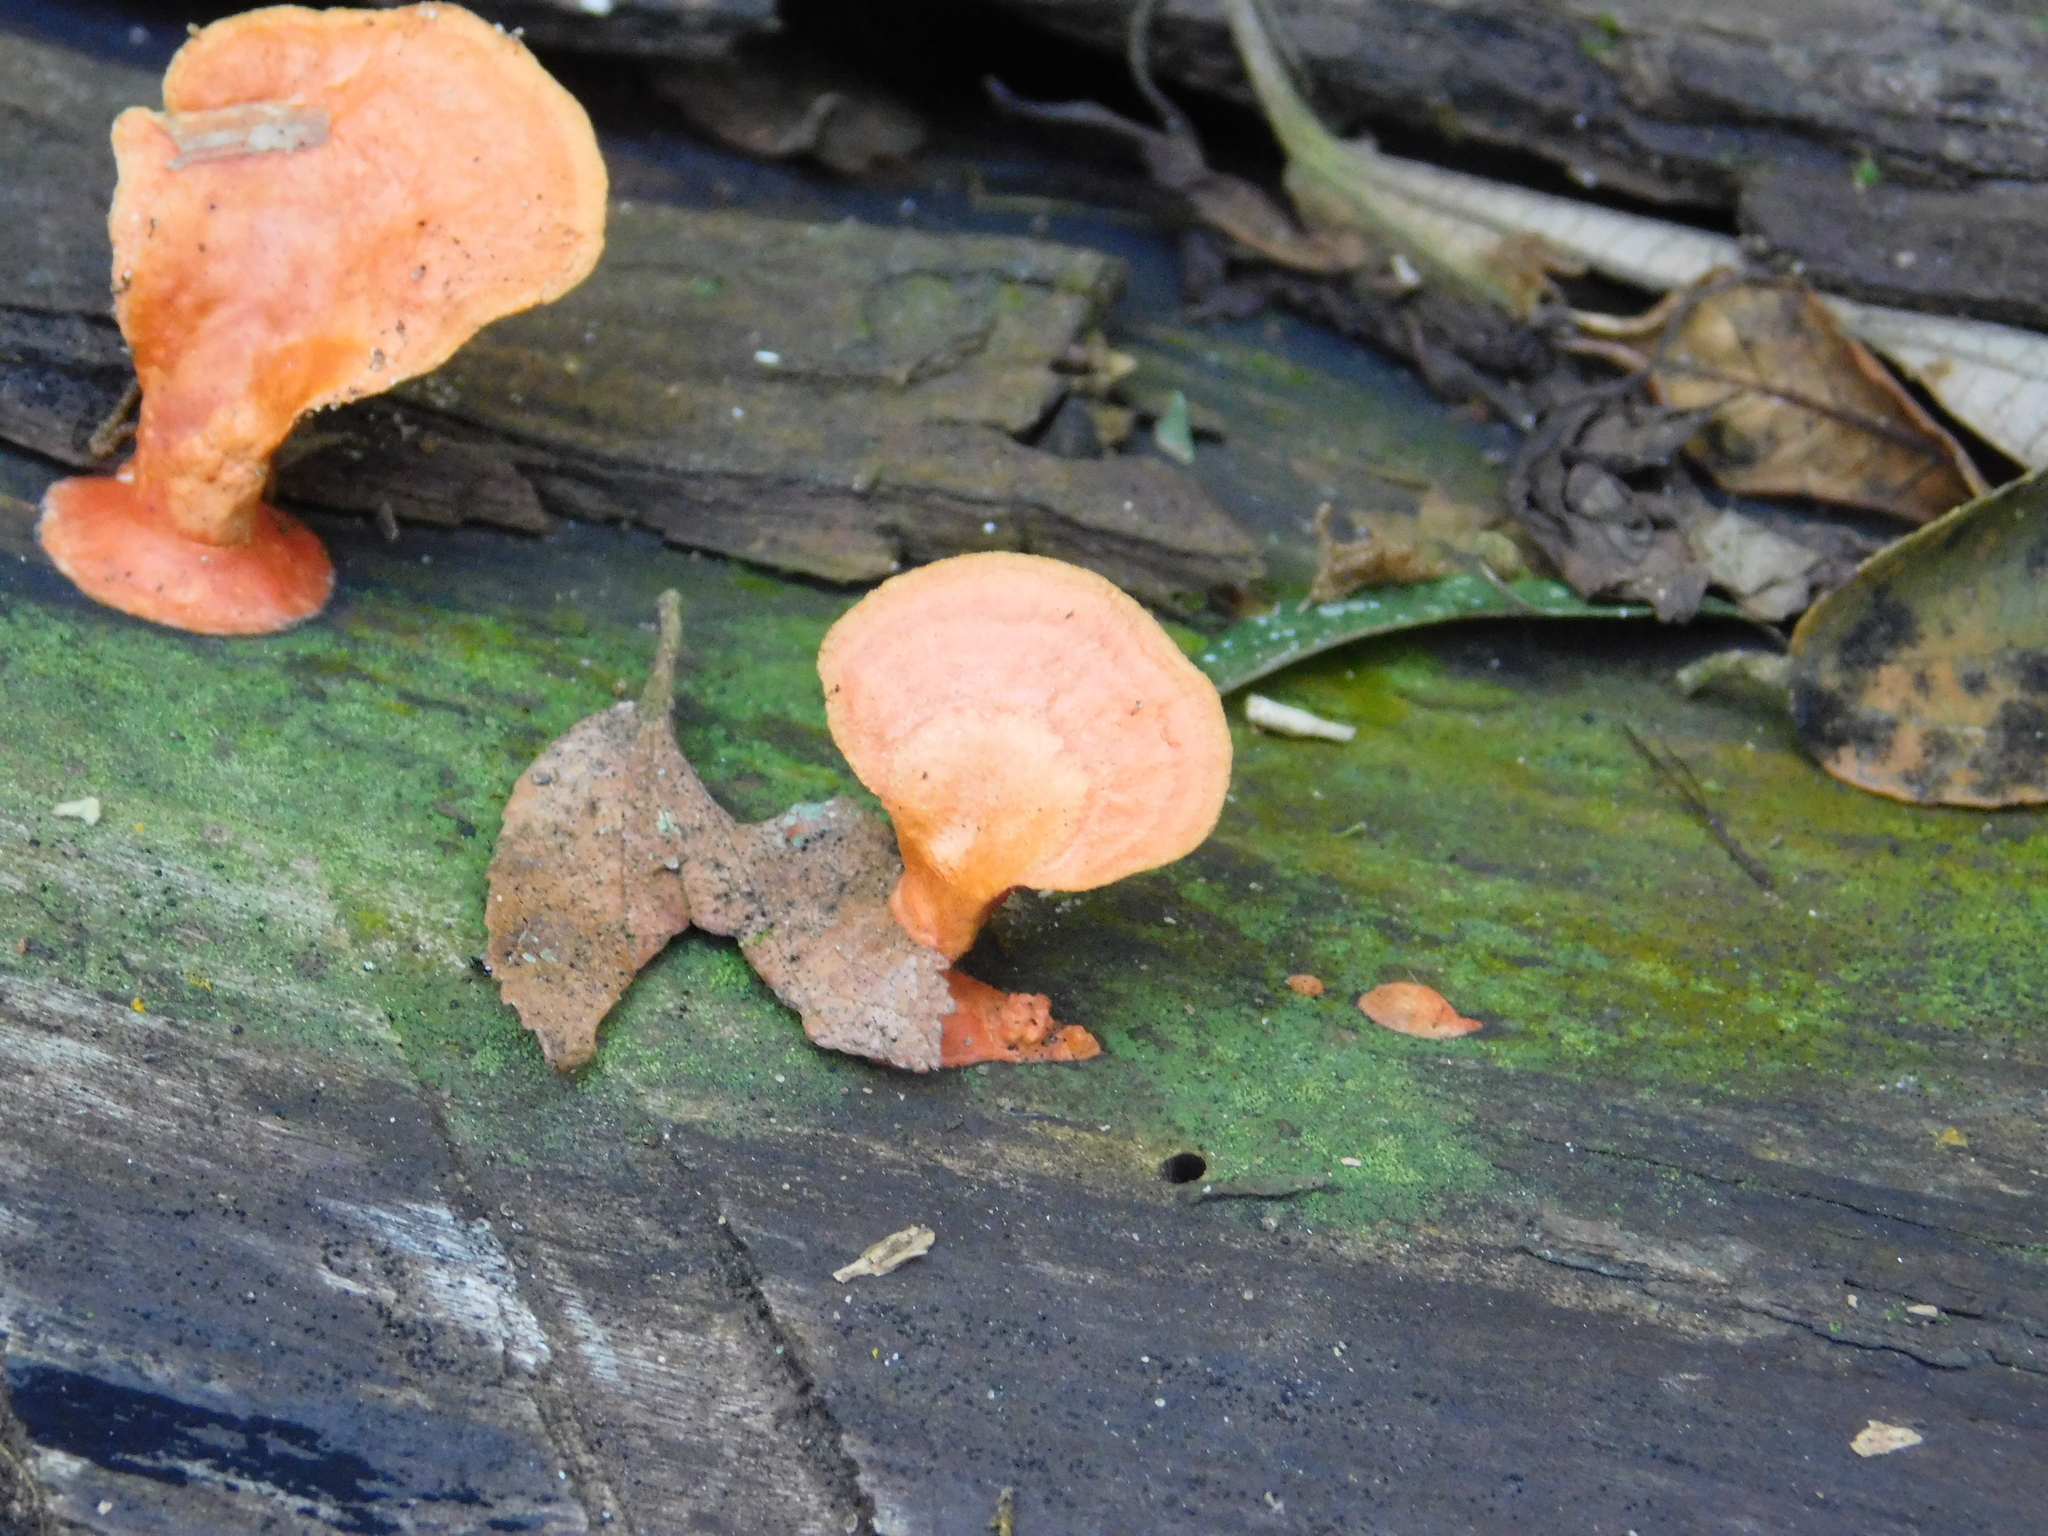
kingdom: Fungi
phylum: Basidiomycota
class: Agaricomycetes
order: Polyporales
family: Polyporaceae
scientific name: Polyporaceae
